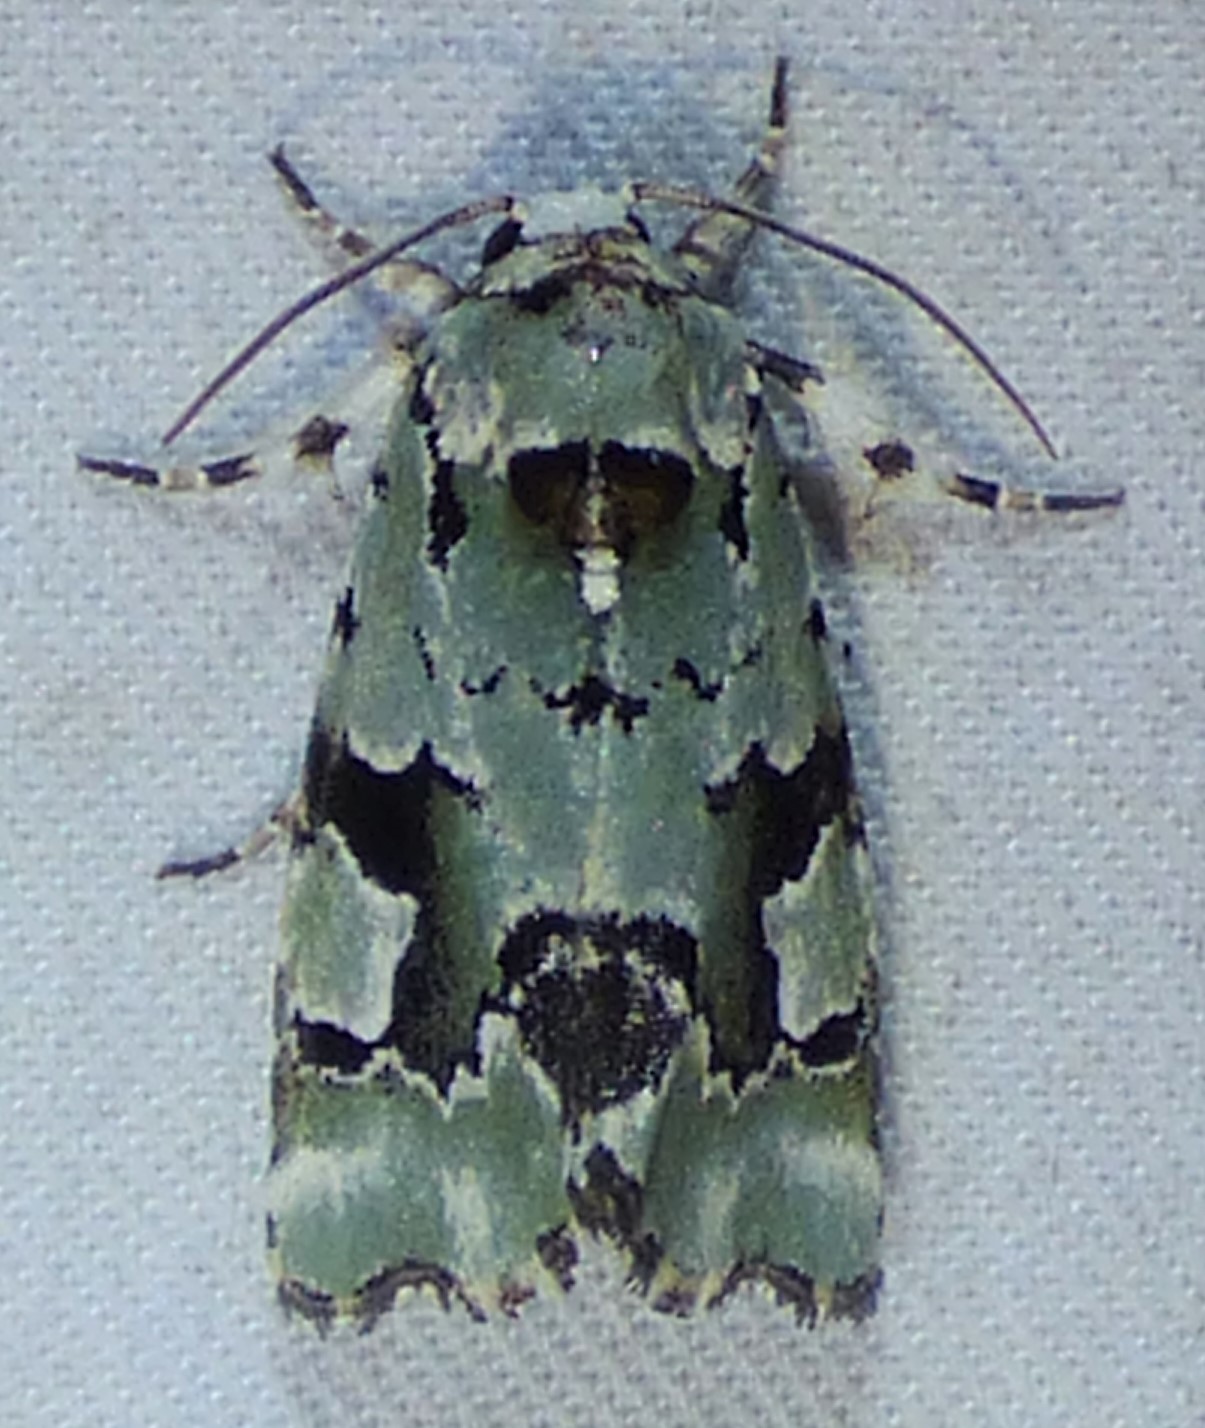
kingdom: Animalia
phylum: Arthropoda
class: Insecta
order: Lepidoptera
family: Noctuidae
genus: Emarginea
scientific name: Emarginea percara
